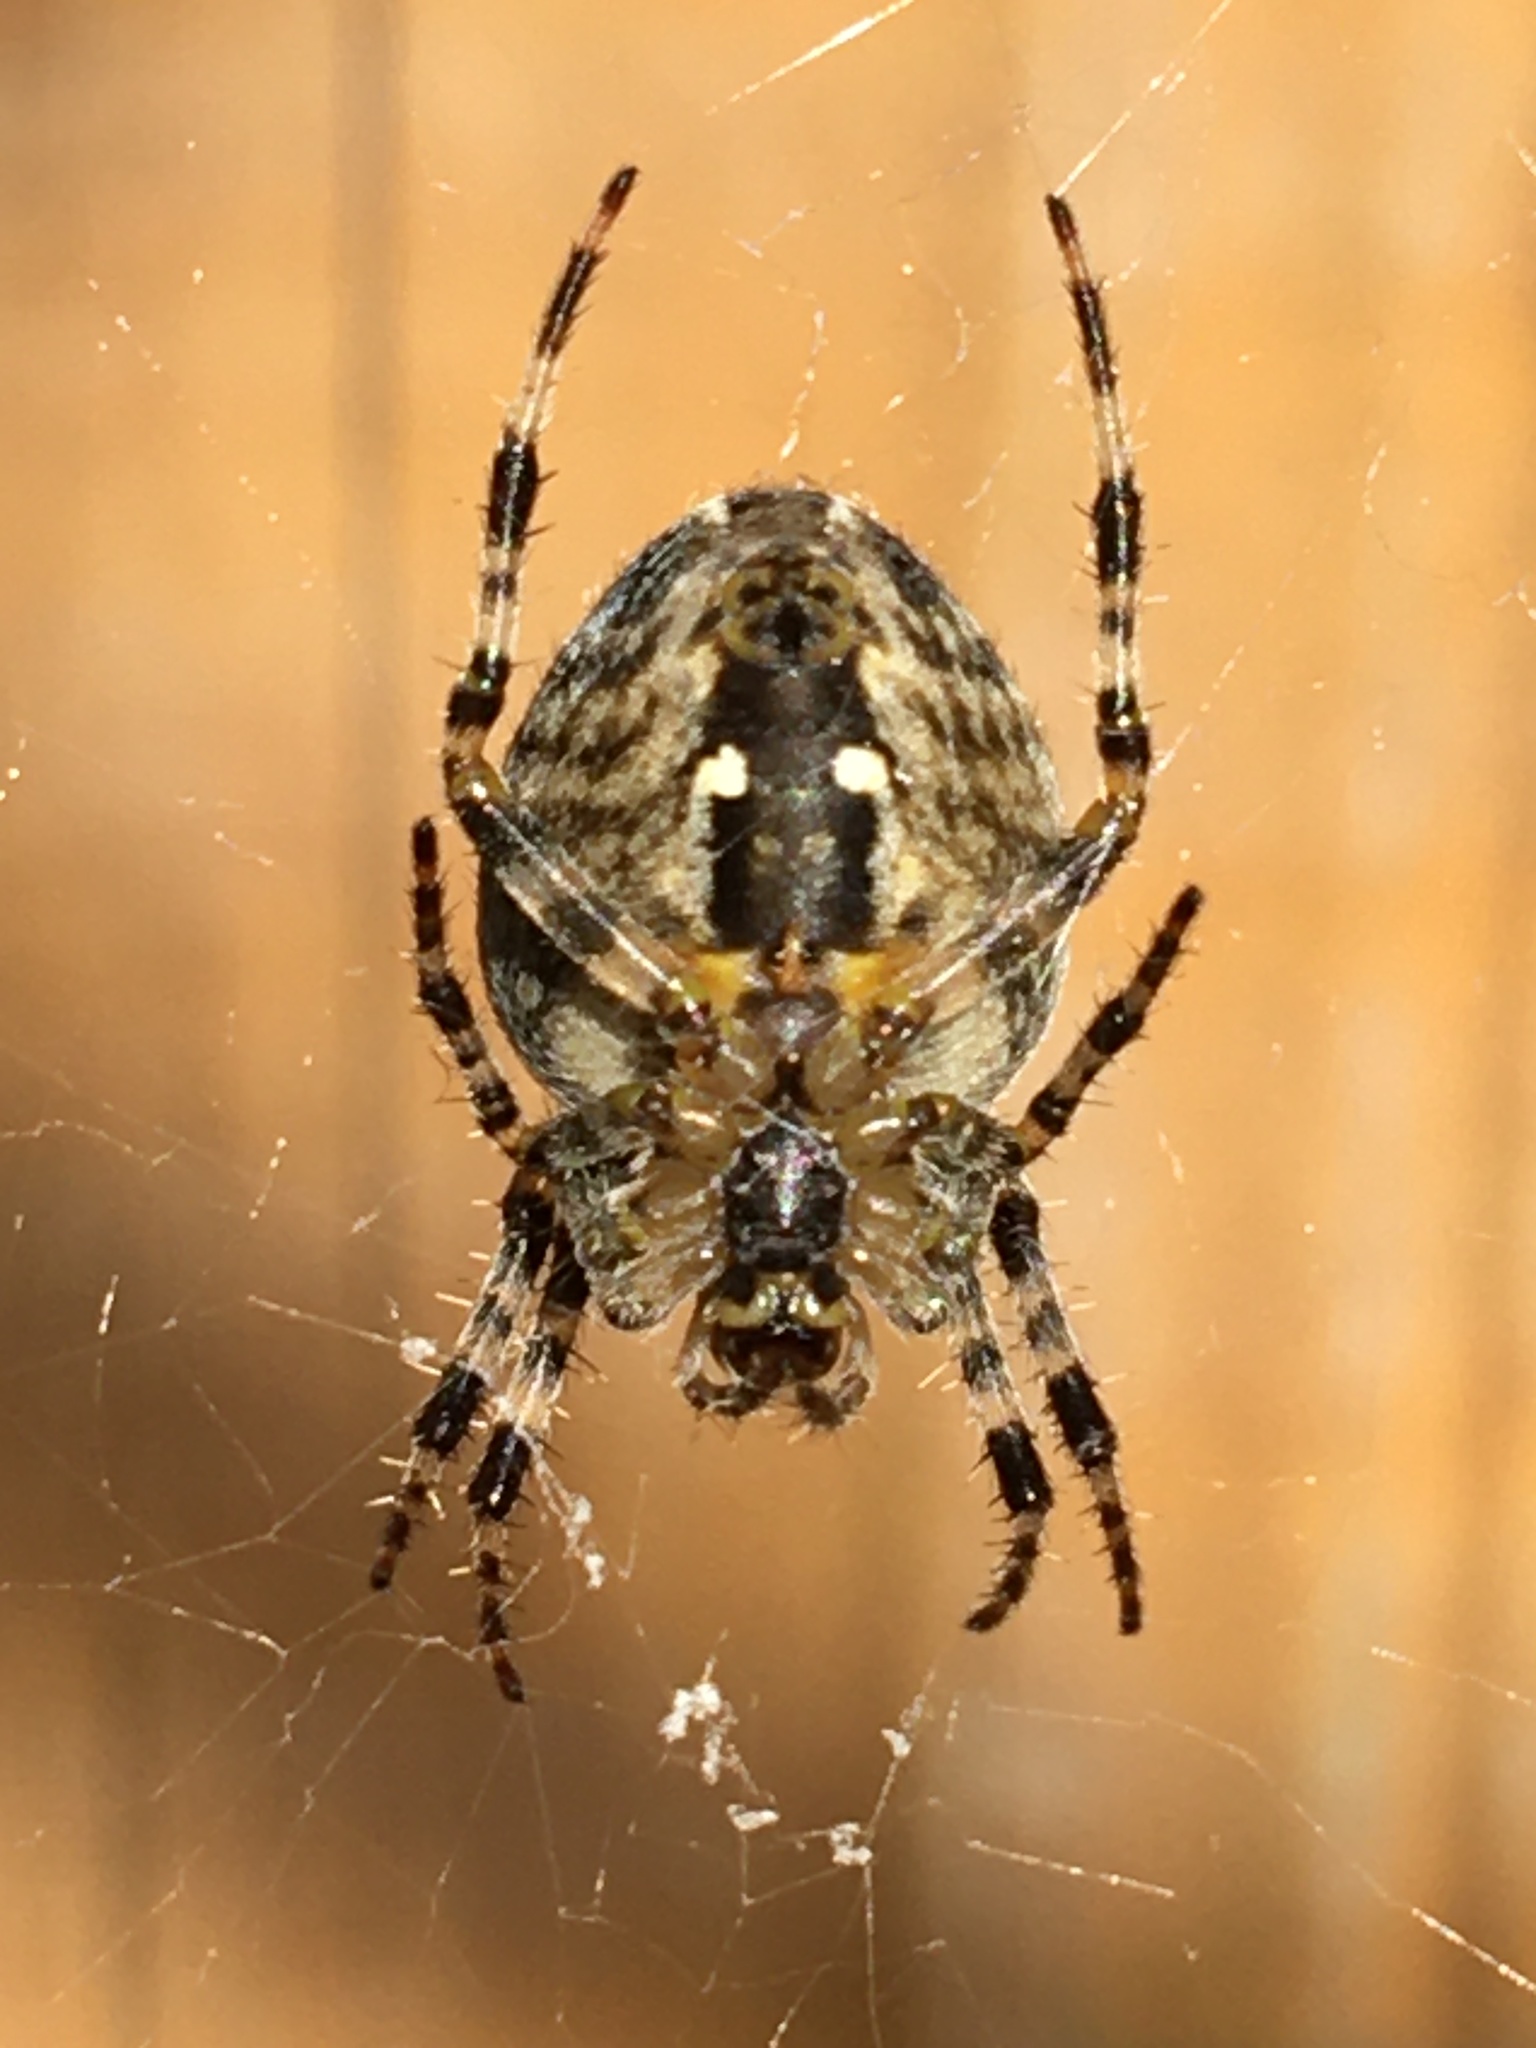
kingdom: Animalia
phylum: Arthropoda
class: Arachnida
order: Araneae
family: Araneidae
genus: Araneus
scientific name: Araneus diadematus
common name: Cross orbweaver
